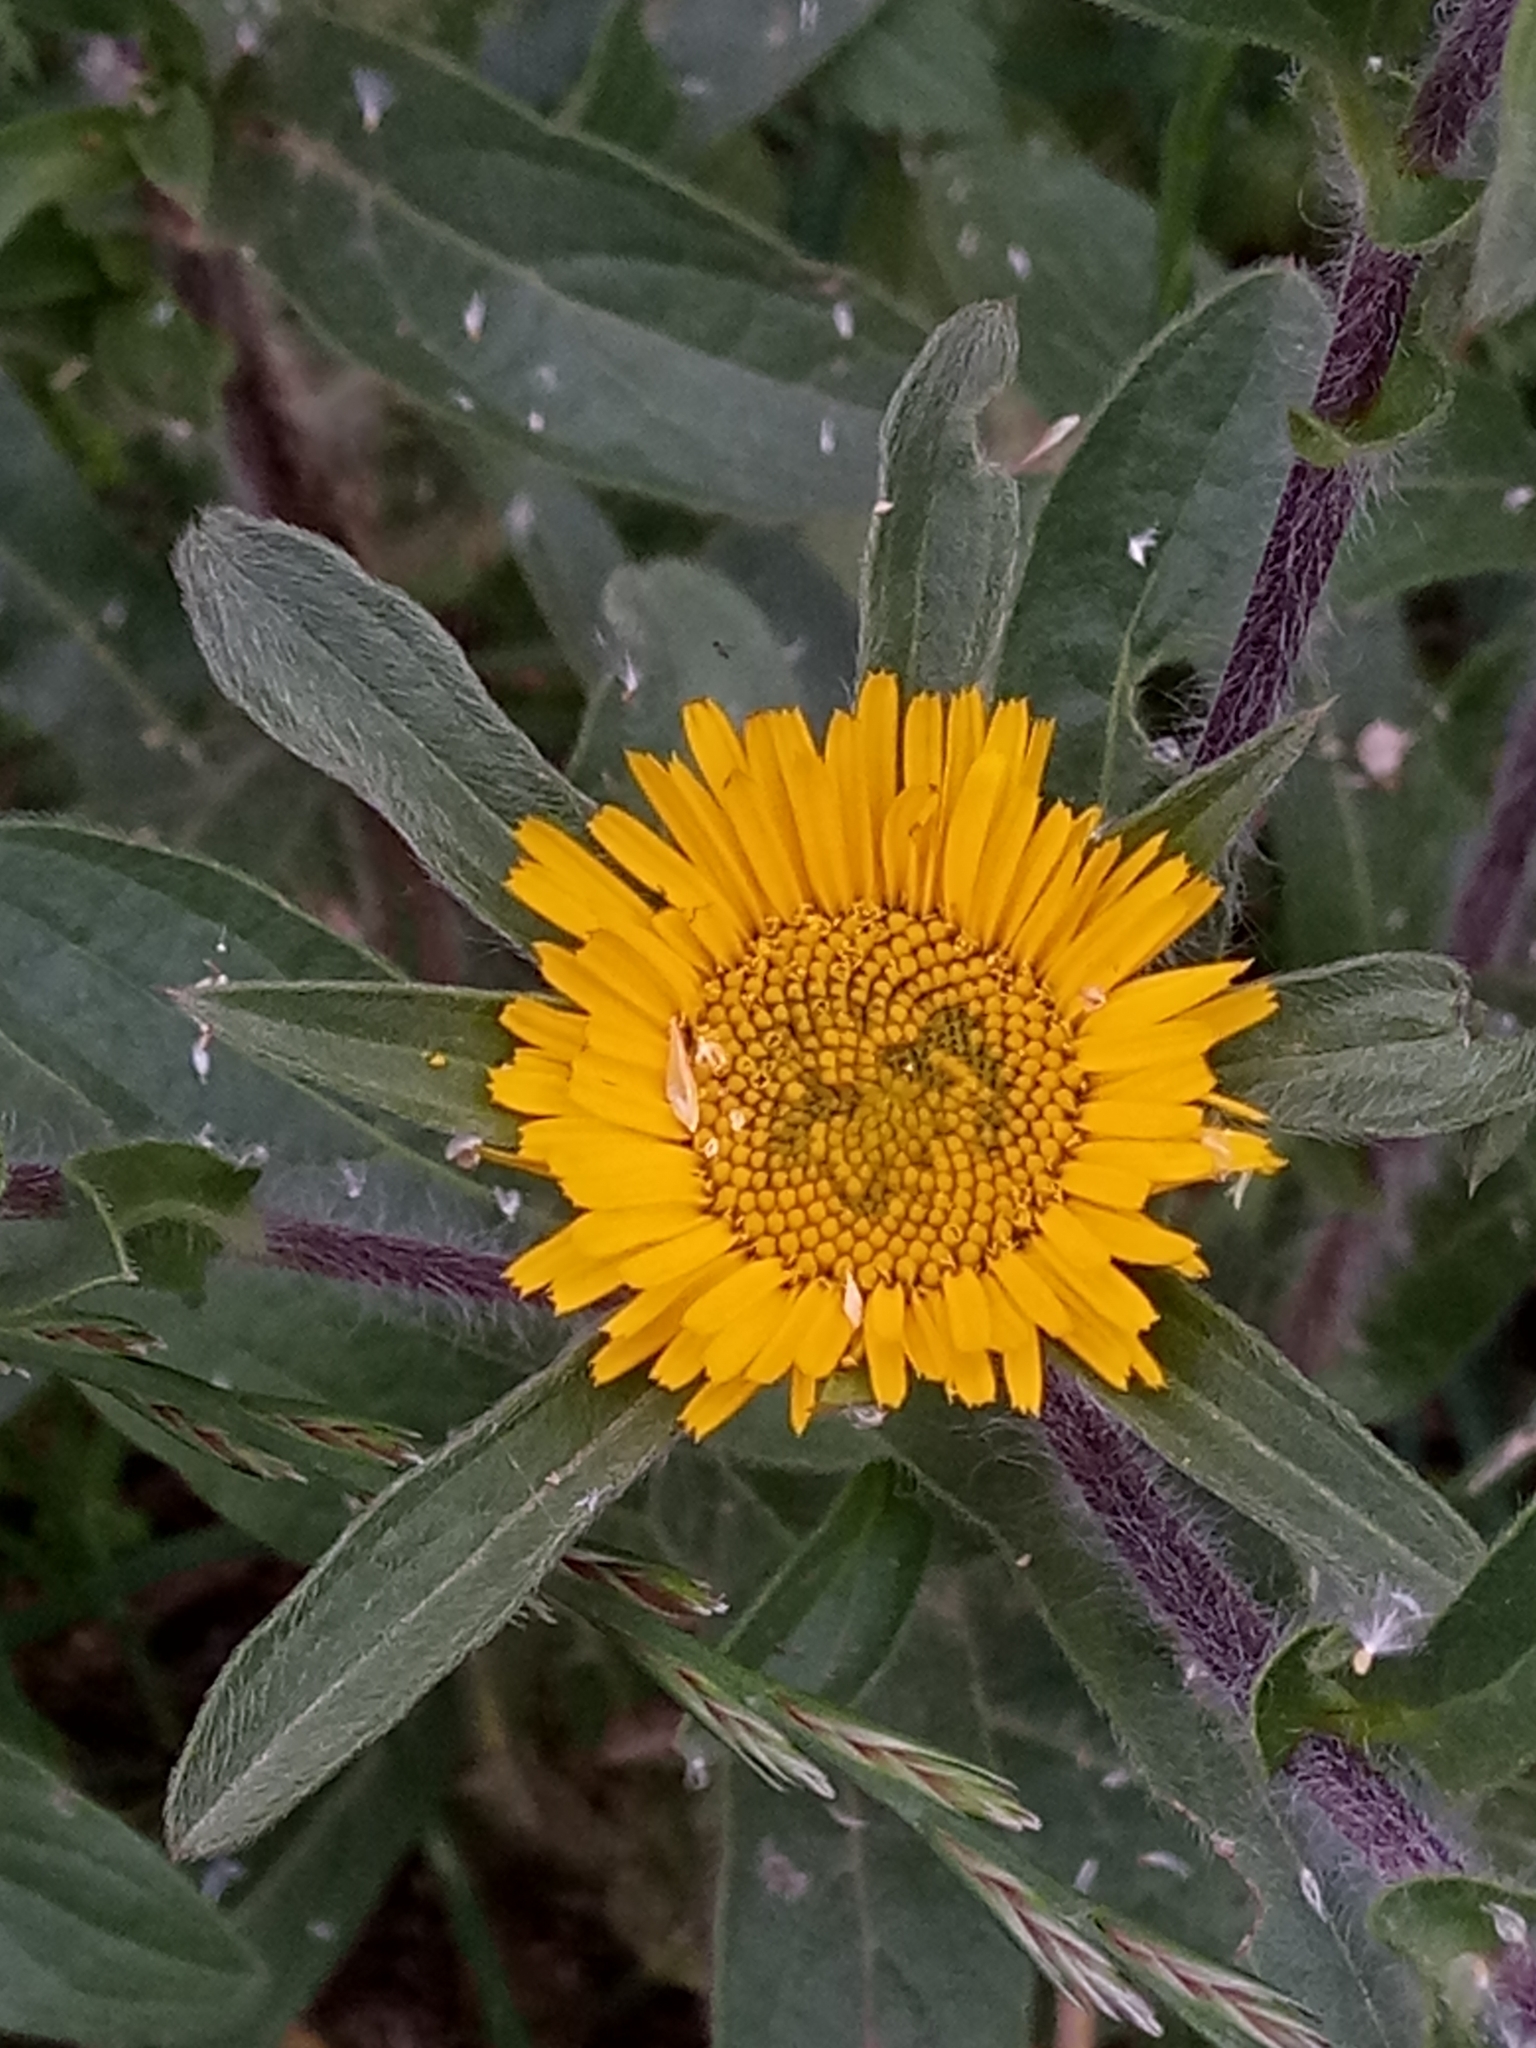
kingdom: Plantae
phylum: Tracheophyta
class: Magnoliopsida
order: Asterales
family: Asteraceae
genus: Pallenis
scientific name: Pallenis spinosa
